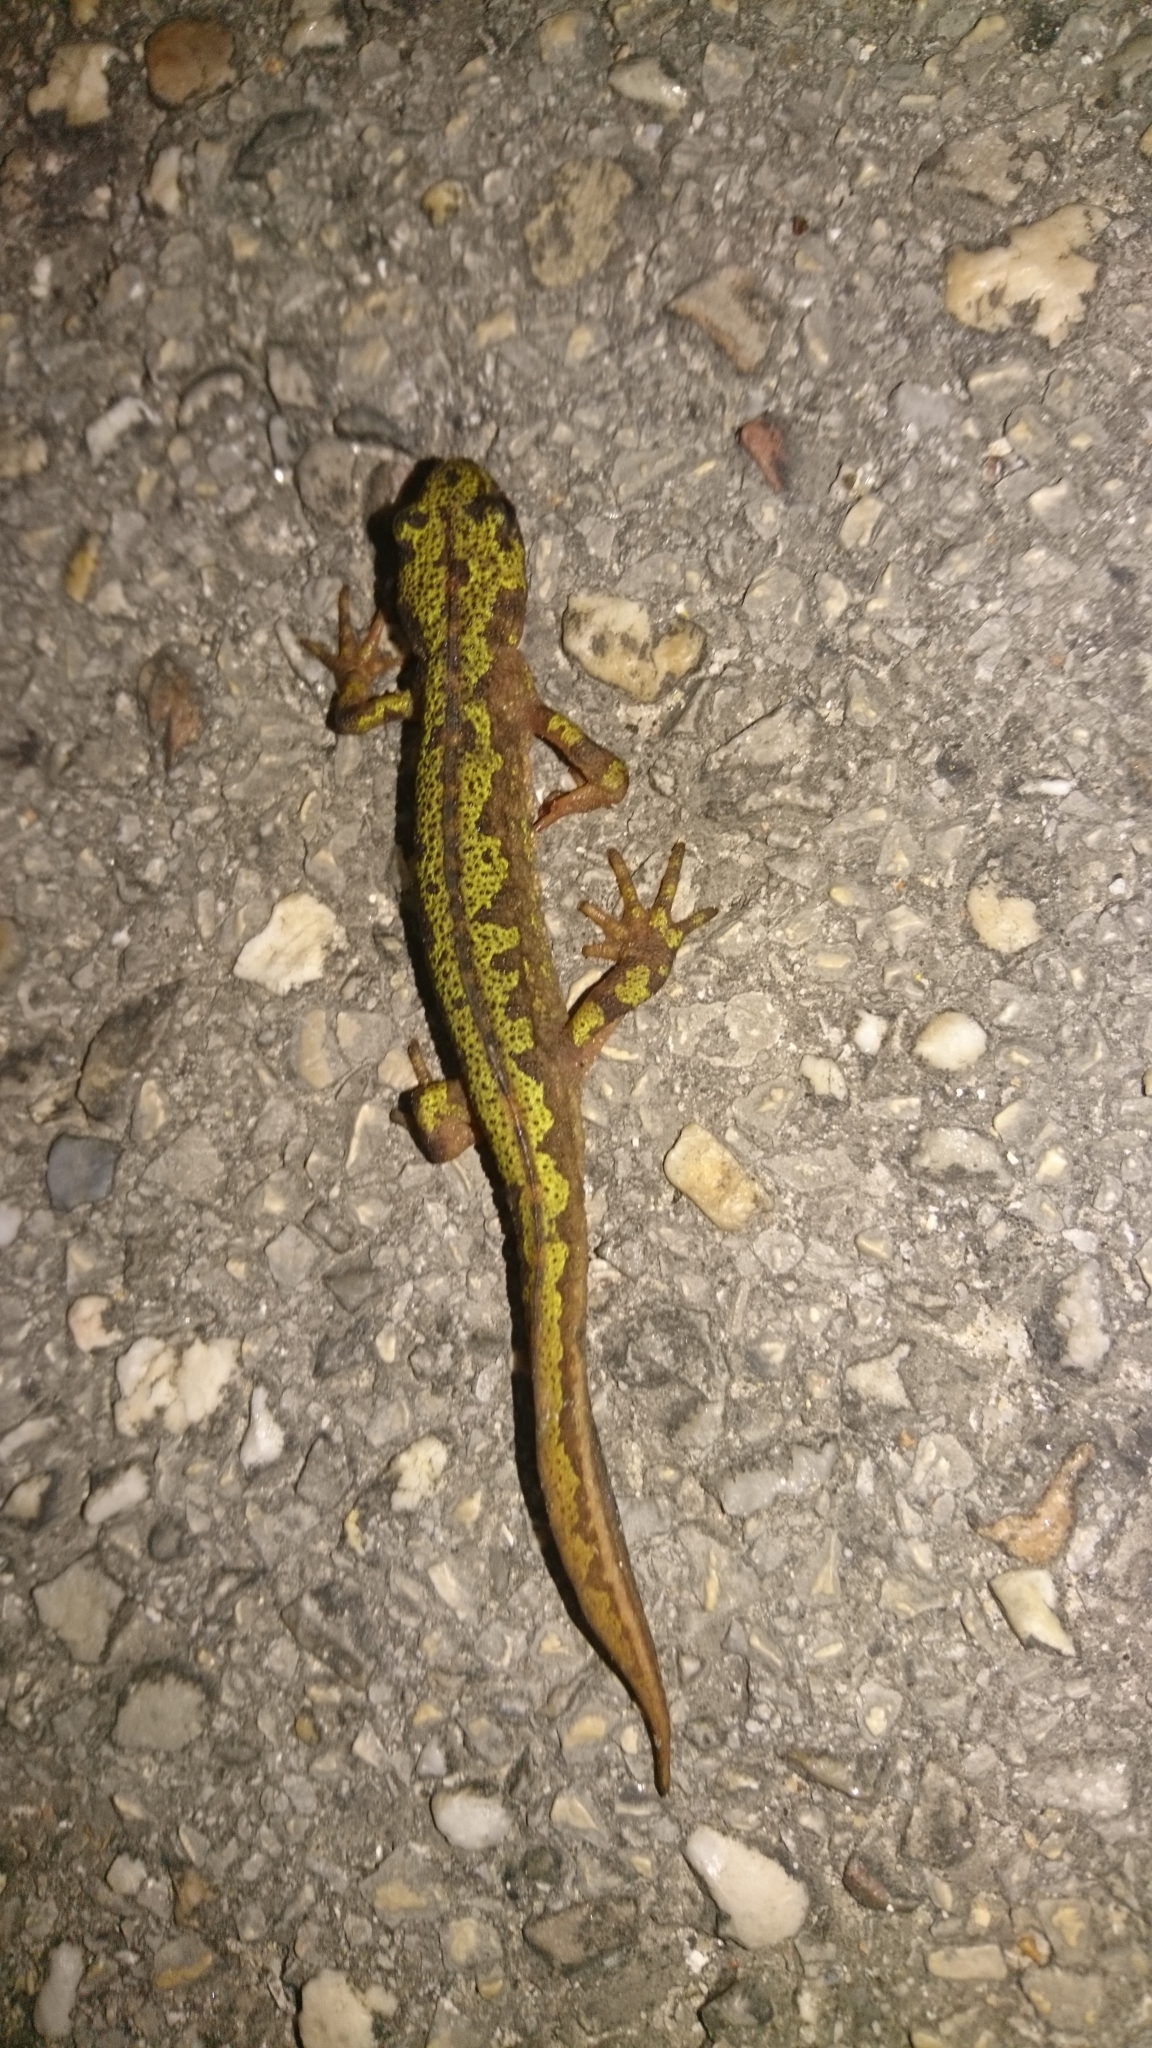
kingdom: Animalia
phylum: Chordata
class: Amphibia
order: Caudata
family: Salamandridae
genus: Triturus
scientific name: Triturus marmoratus
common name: Marbled newt
